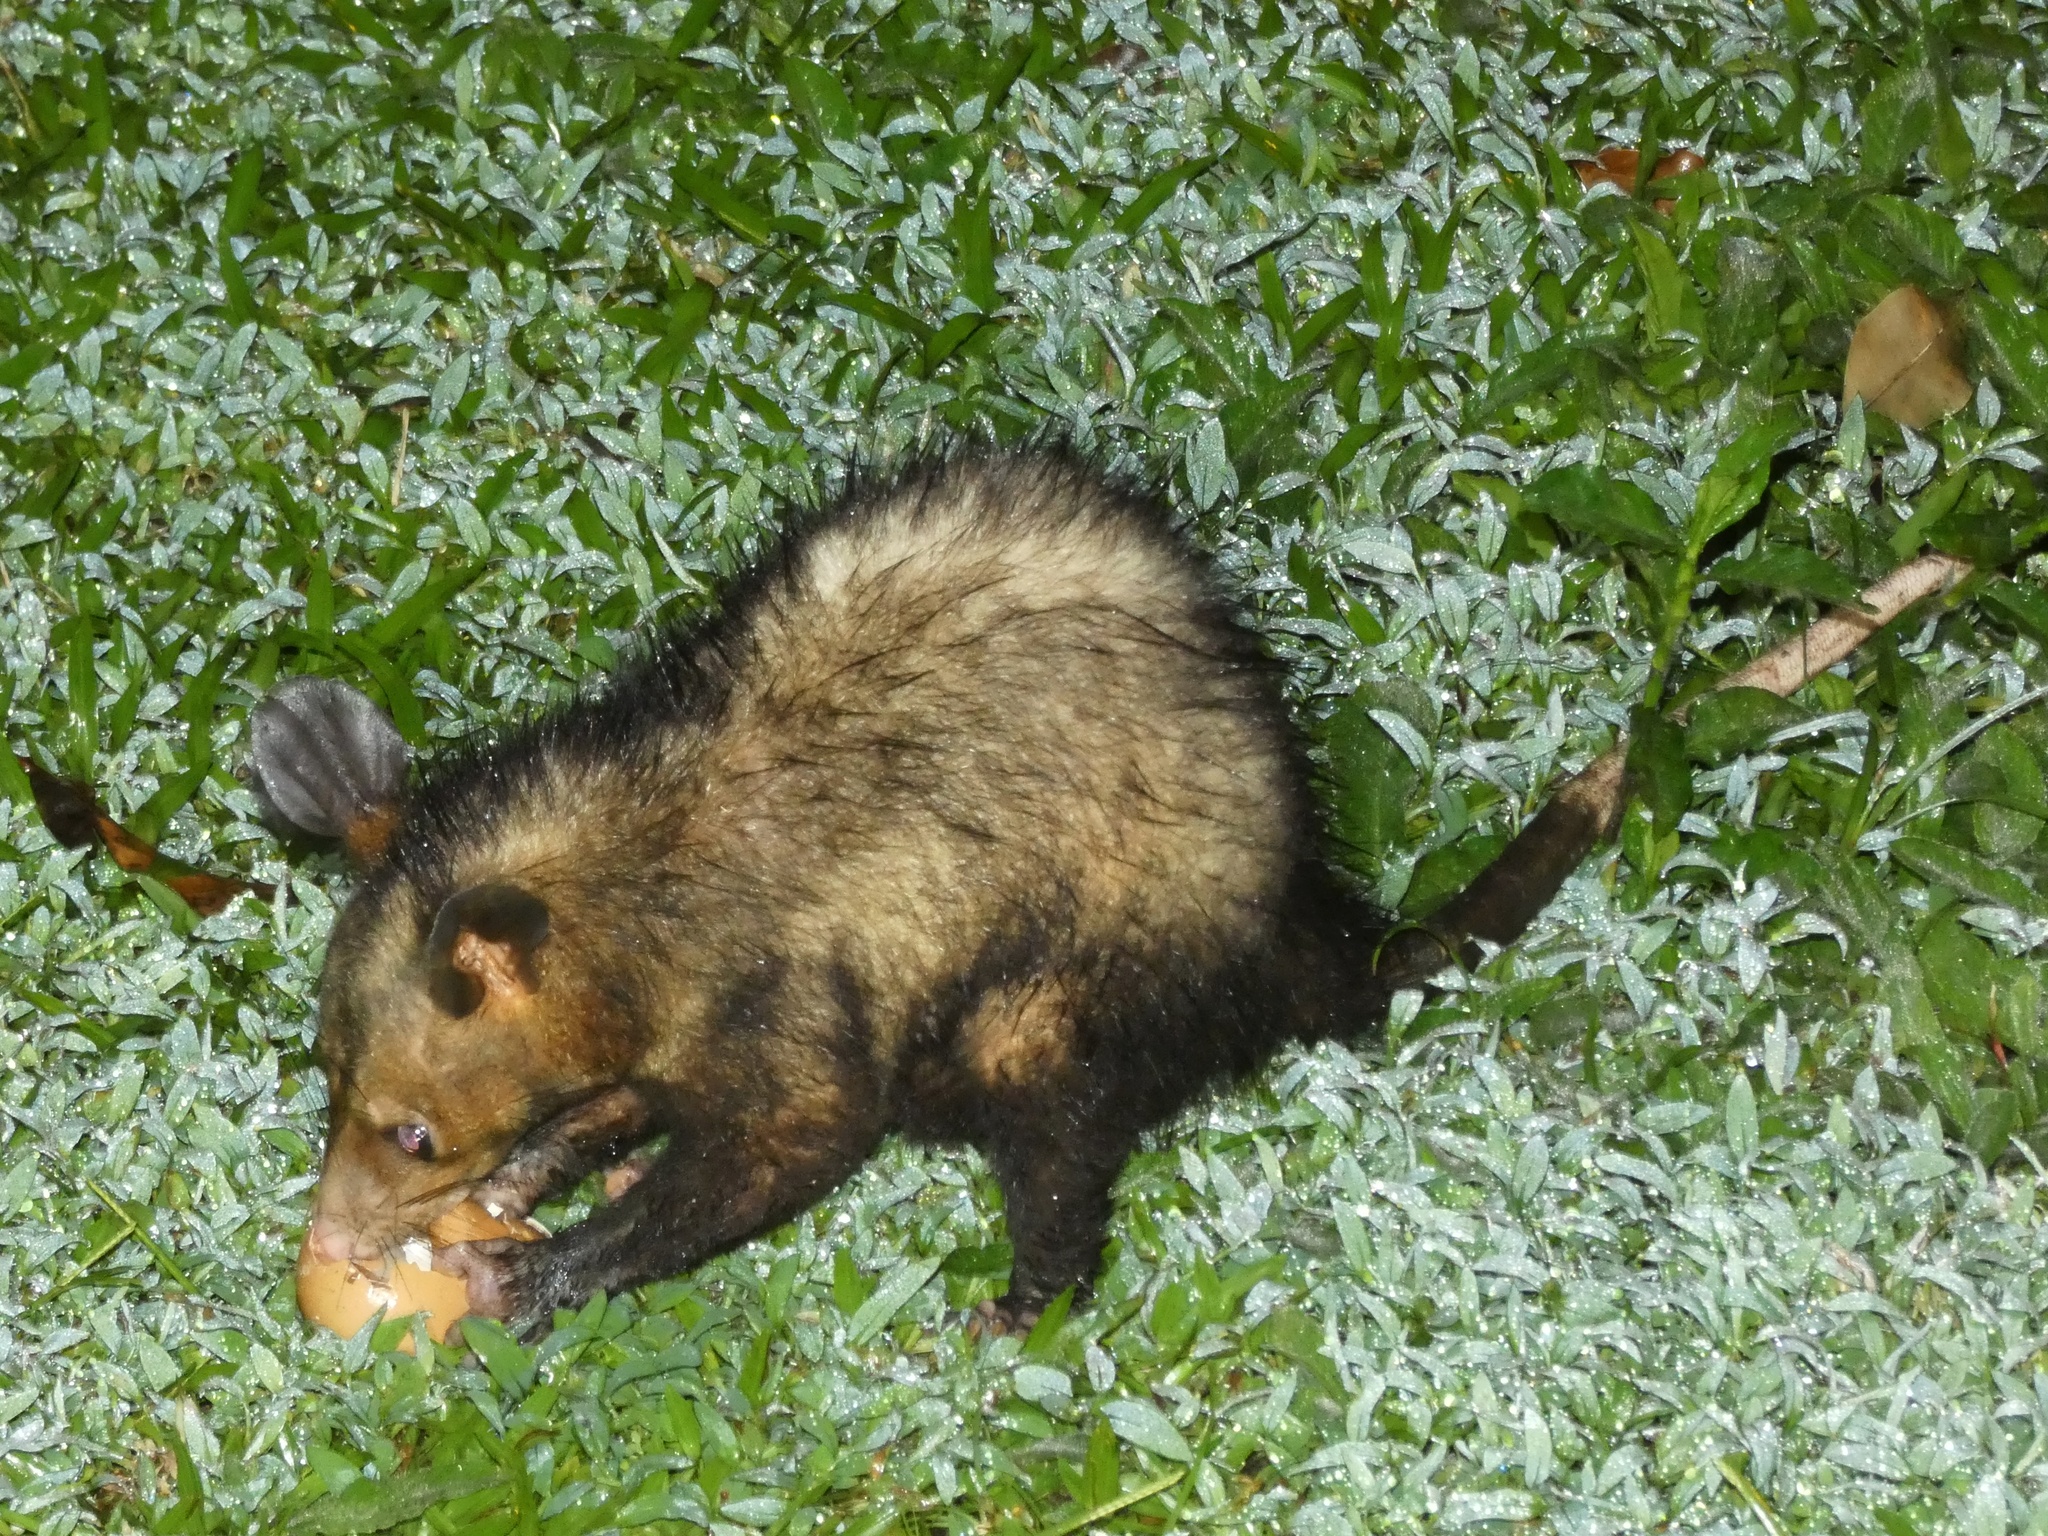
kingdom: Animalia
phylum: Chordata
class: Mammalia
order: Didelphimorphia
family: Didelphidae
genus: Didelphis
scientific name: Didelphis marsupialis
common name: Common opossum
